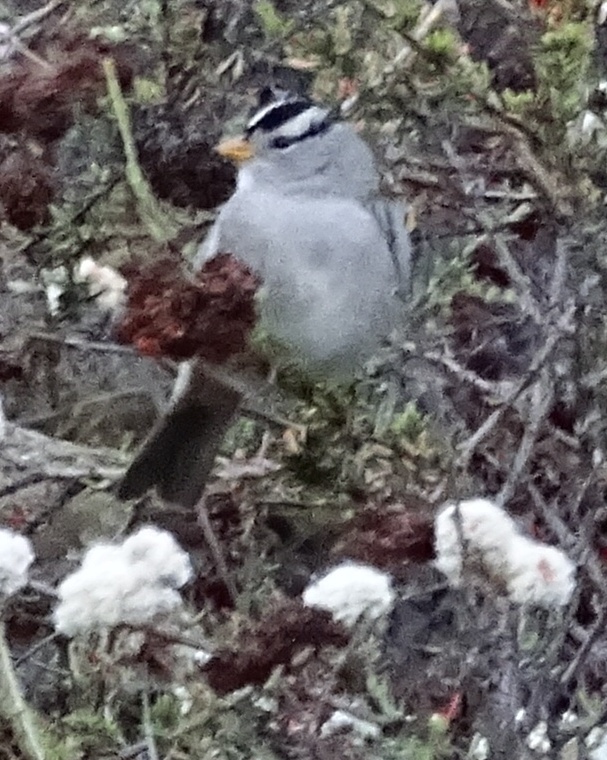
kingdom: Animalia
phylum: Chordata
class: Aves
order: Passeriformes
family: Passerellidae
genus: Zonotrichia
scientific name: Zonotrichia leucophrys
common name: White-crowned sparrow
